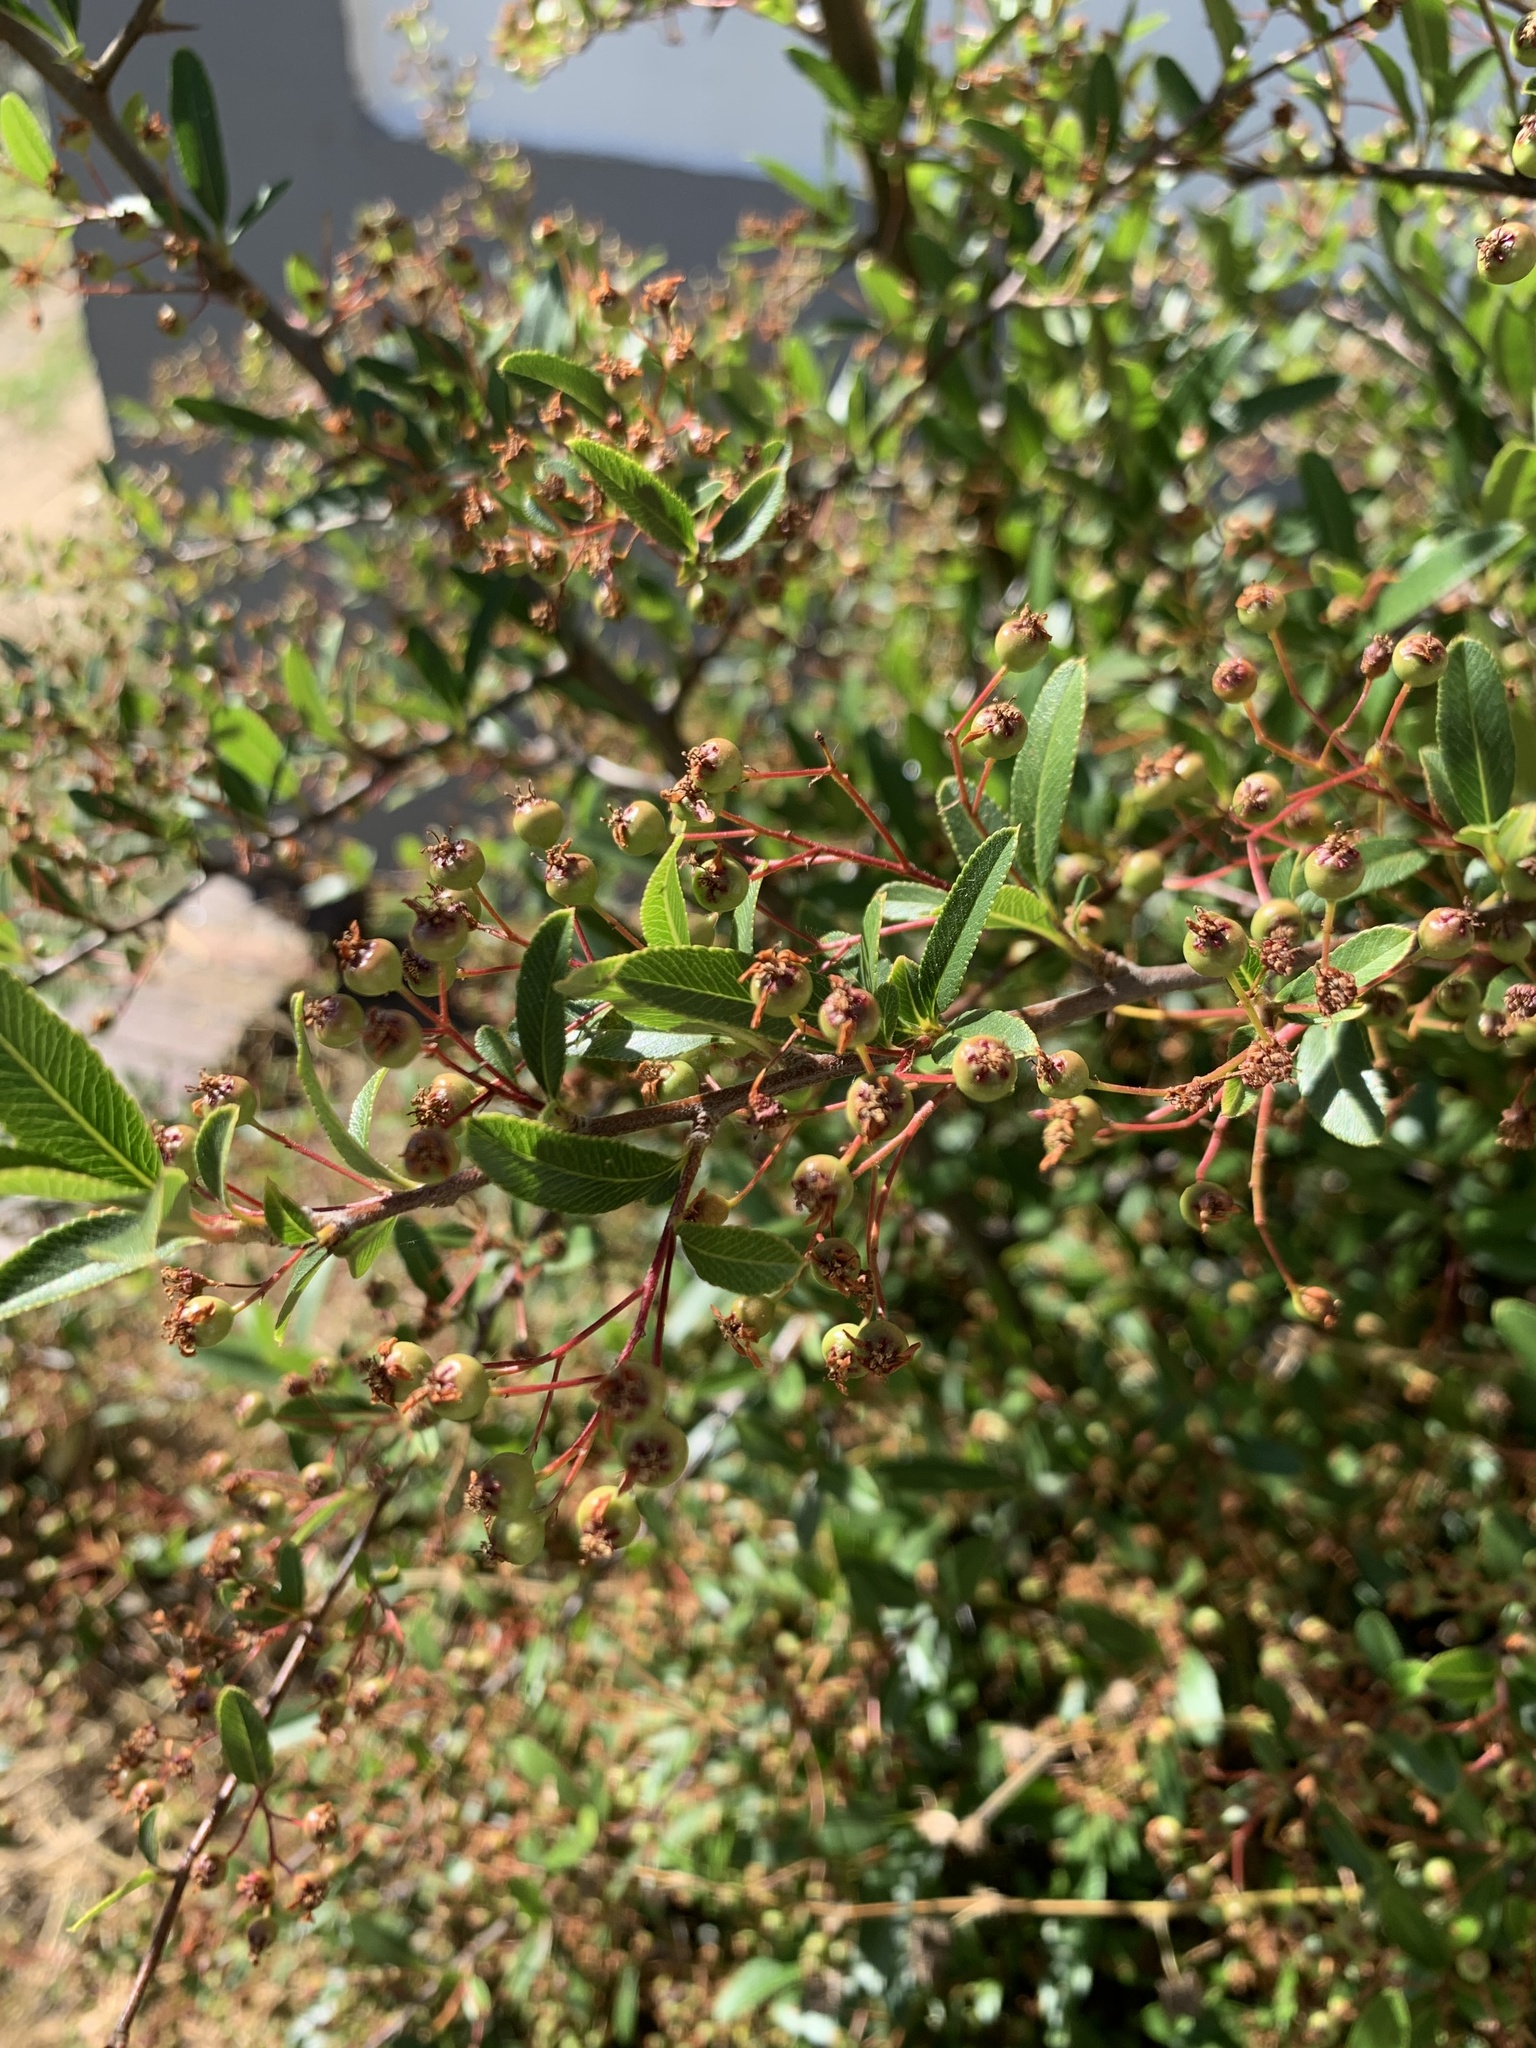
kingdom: Plantae
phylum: Tracheophyta
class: Magnoliopsida
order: Rosales
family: Rosaceae
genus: Pyracantha
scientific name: Pyracantha crenulata
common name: Nepalese firethorn
